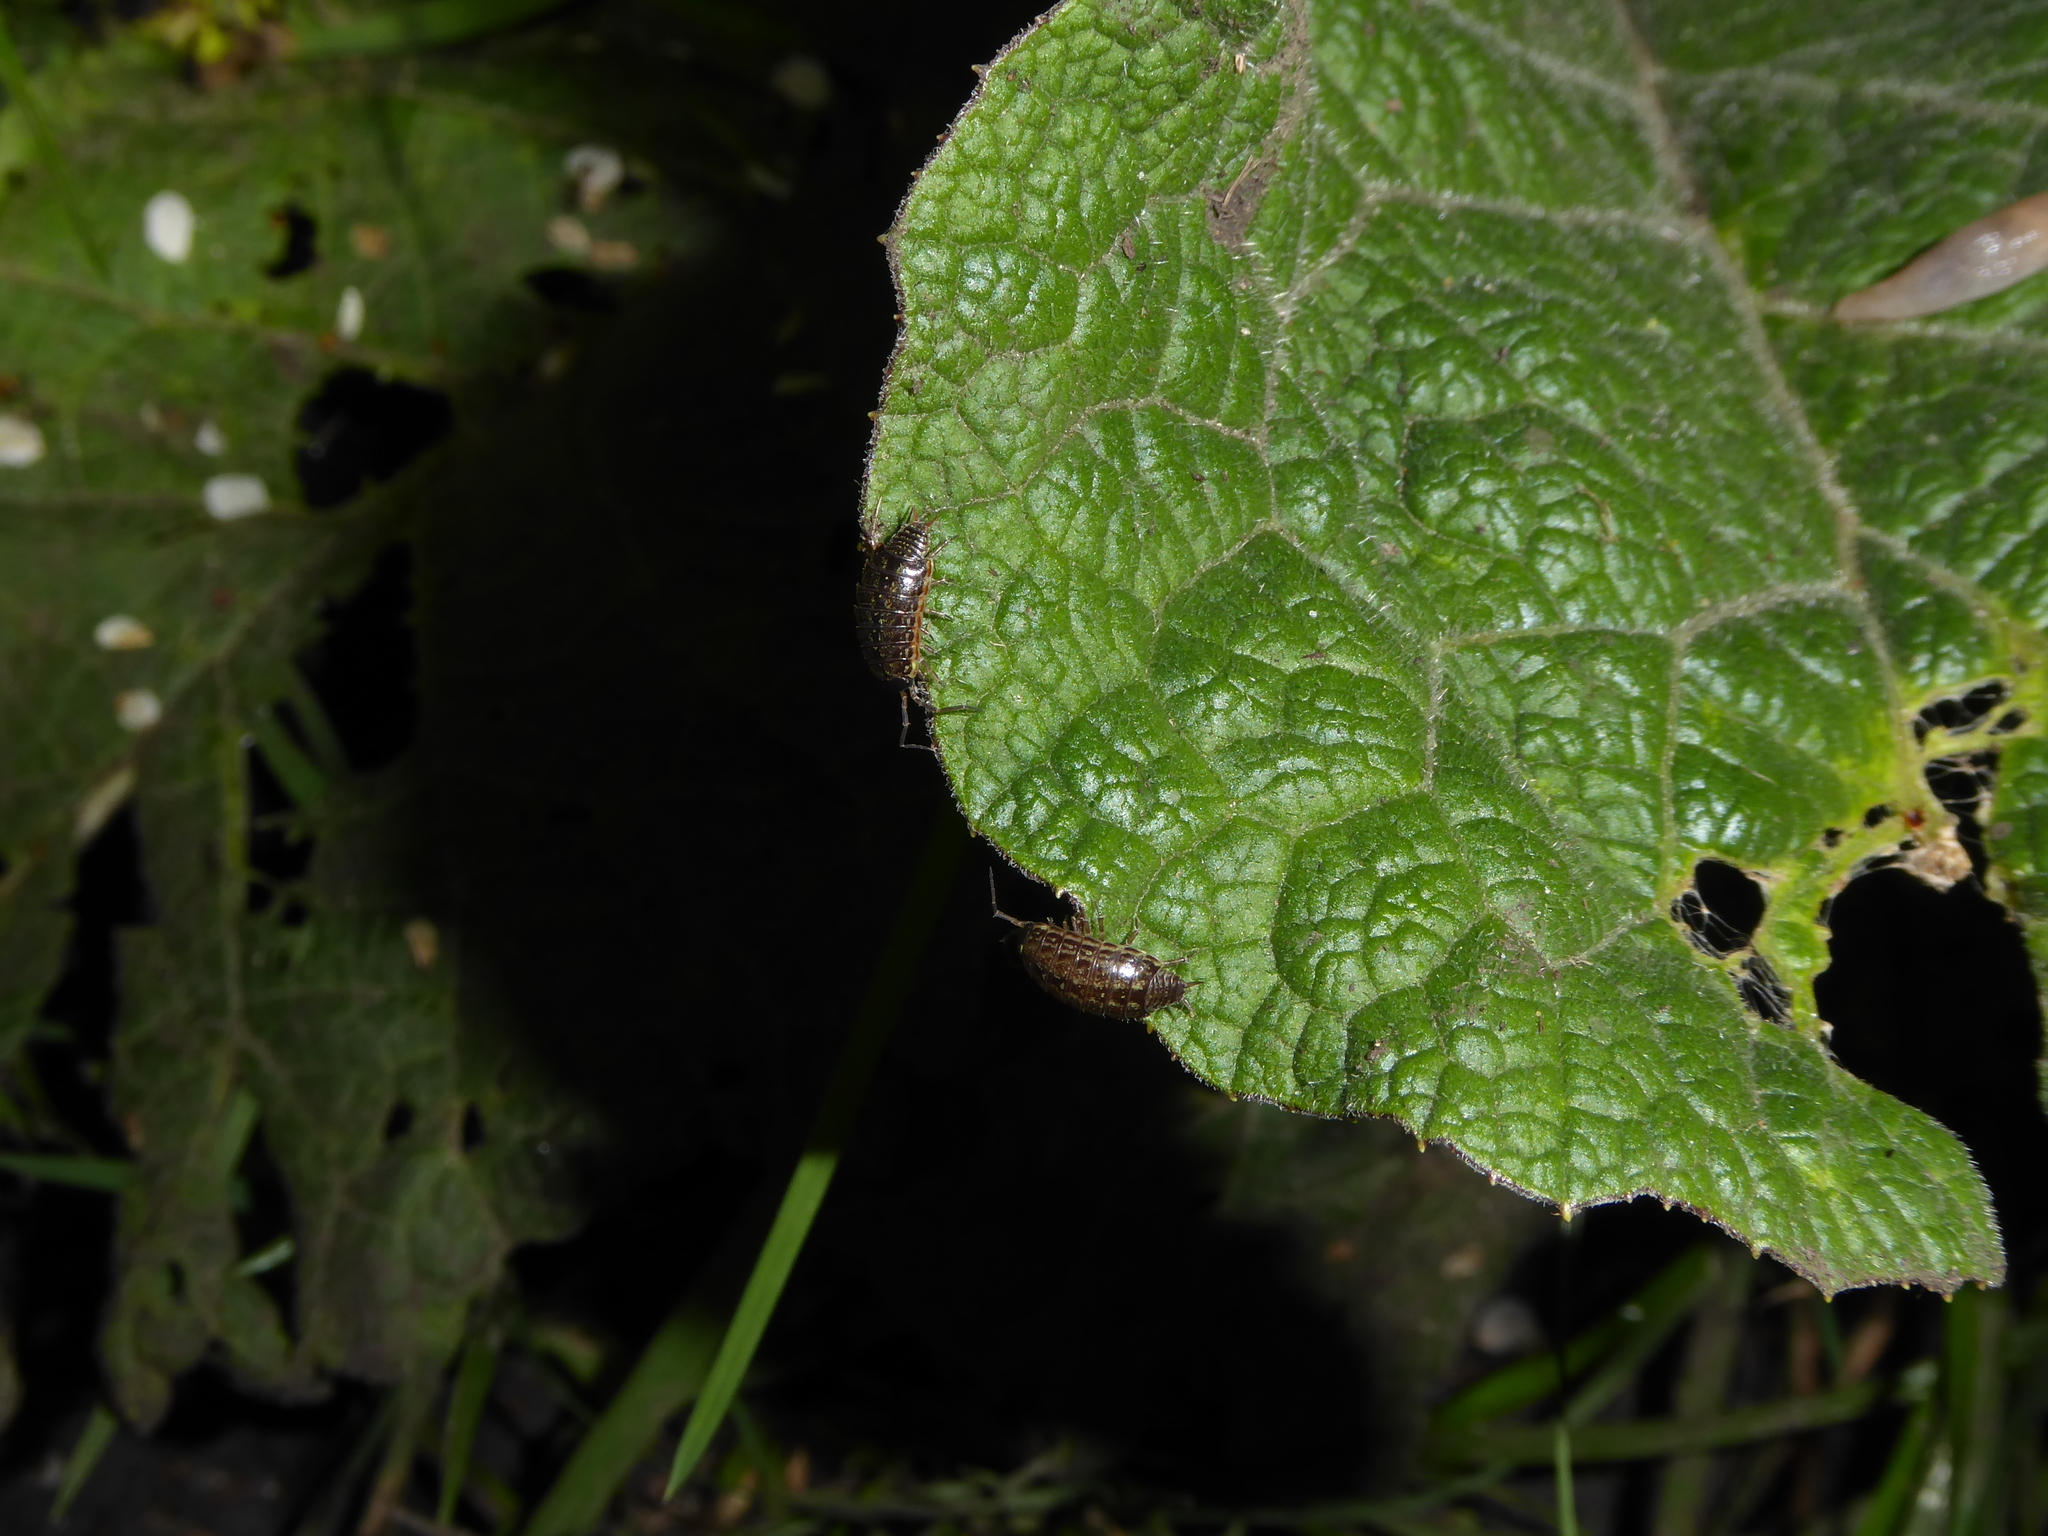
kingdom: Animalia
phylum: Arthropoda
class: Malacostraca
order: Isopoda
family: Philosciidae
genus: Philoscia
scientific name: Philoscia muscorum
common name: Common striped woodlouse
